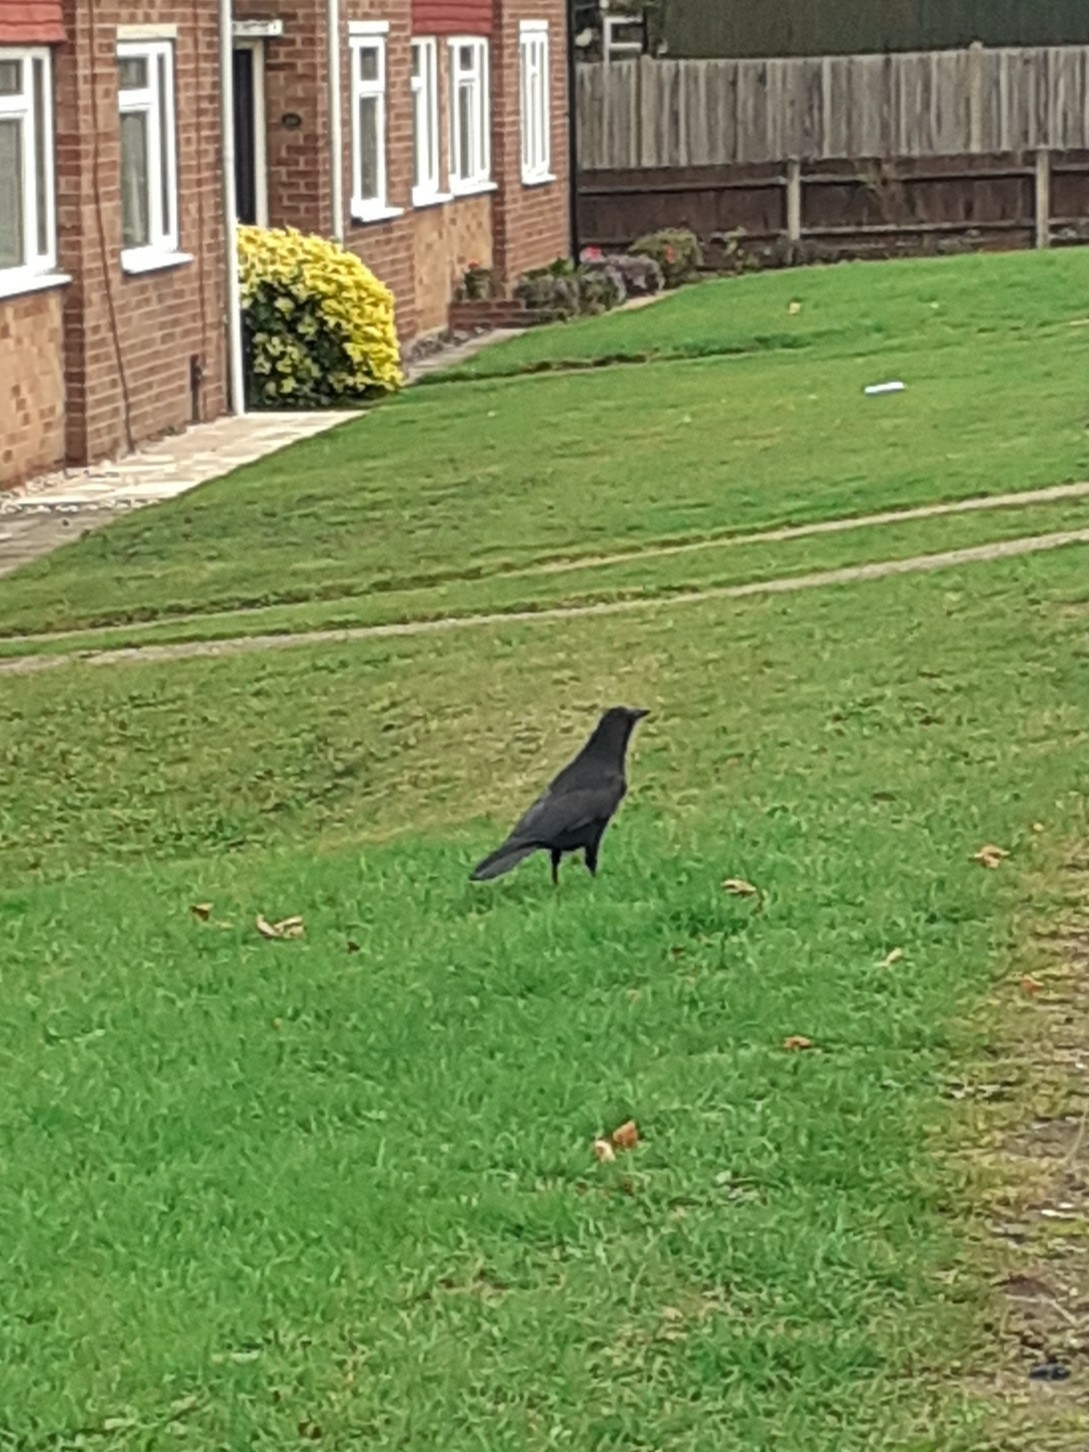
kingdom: Animalia
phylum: Chordata
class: Aves
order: Passeriformes
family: Corvidae
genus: Corvus
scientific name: Corvus corone
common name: Carrion crow
